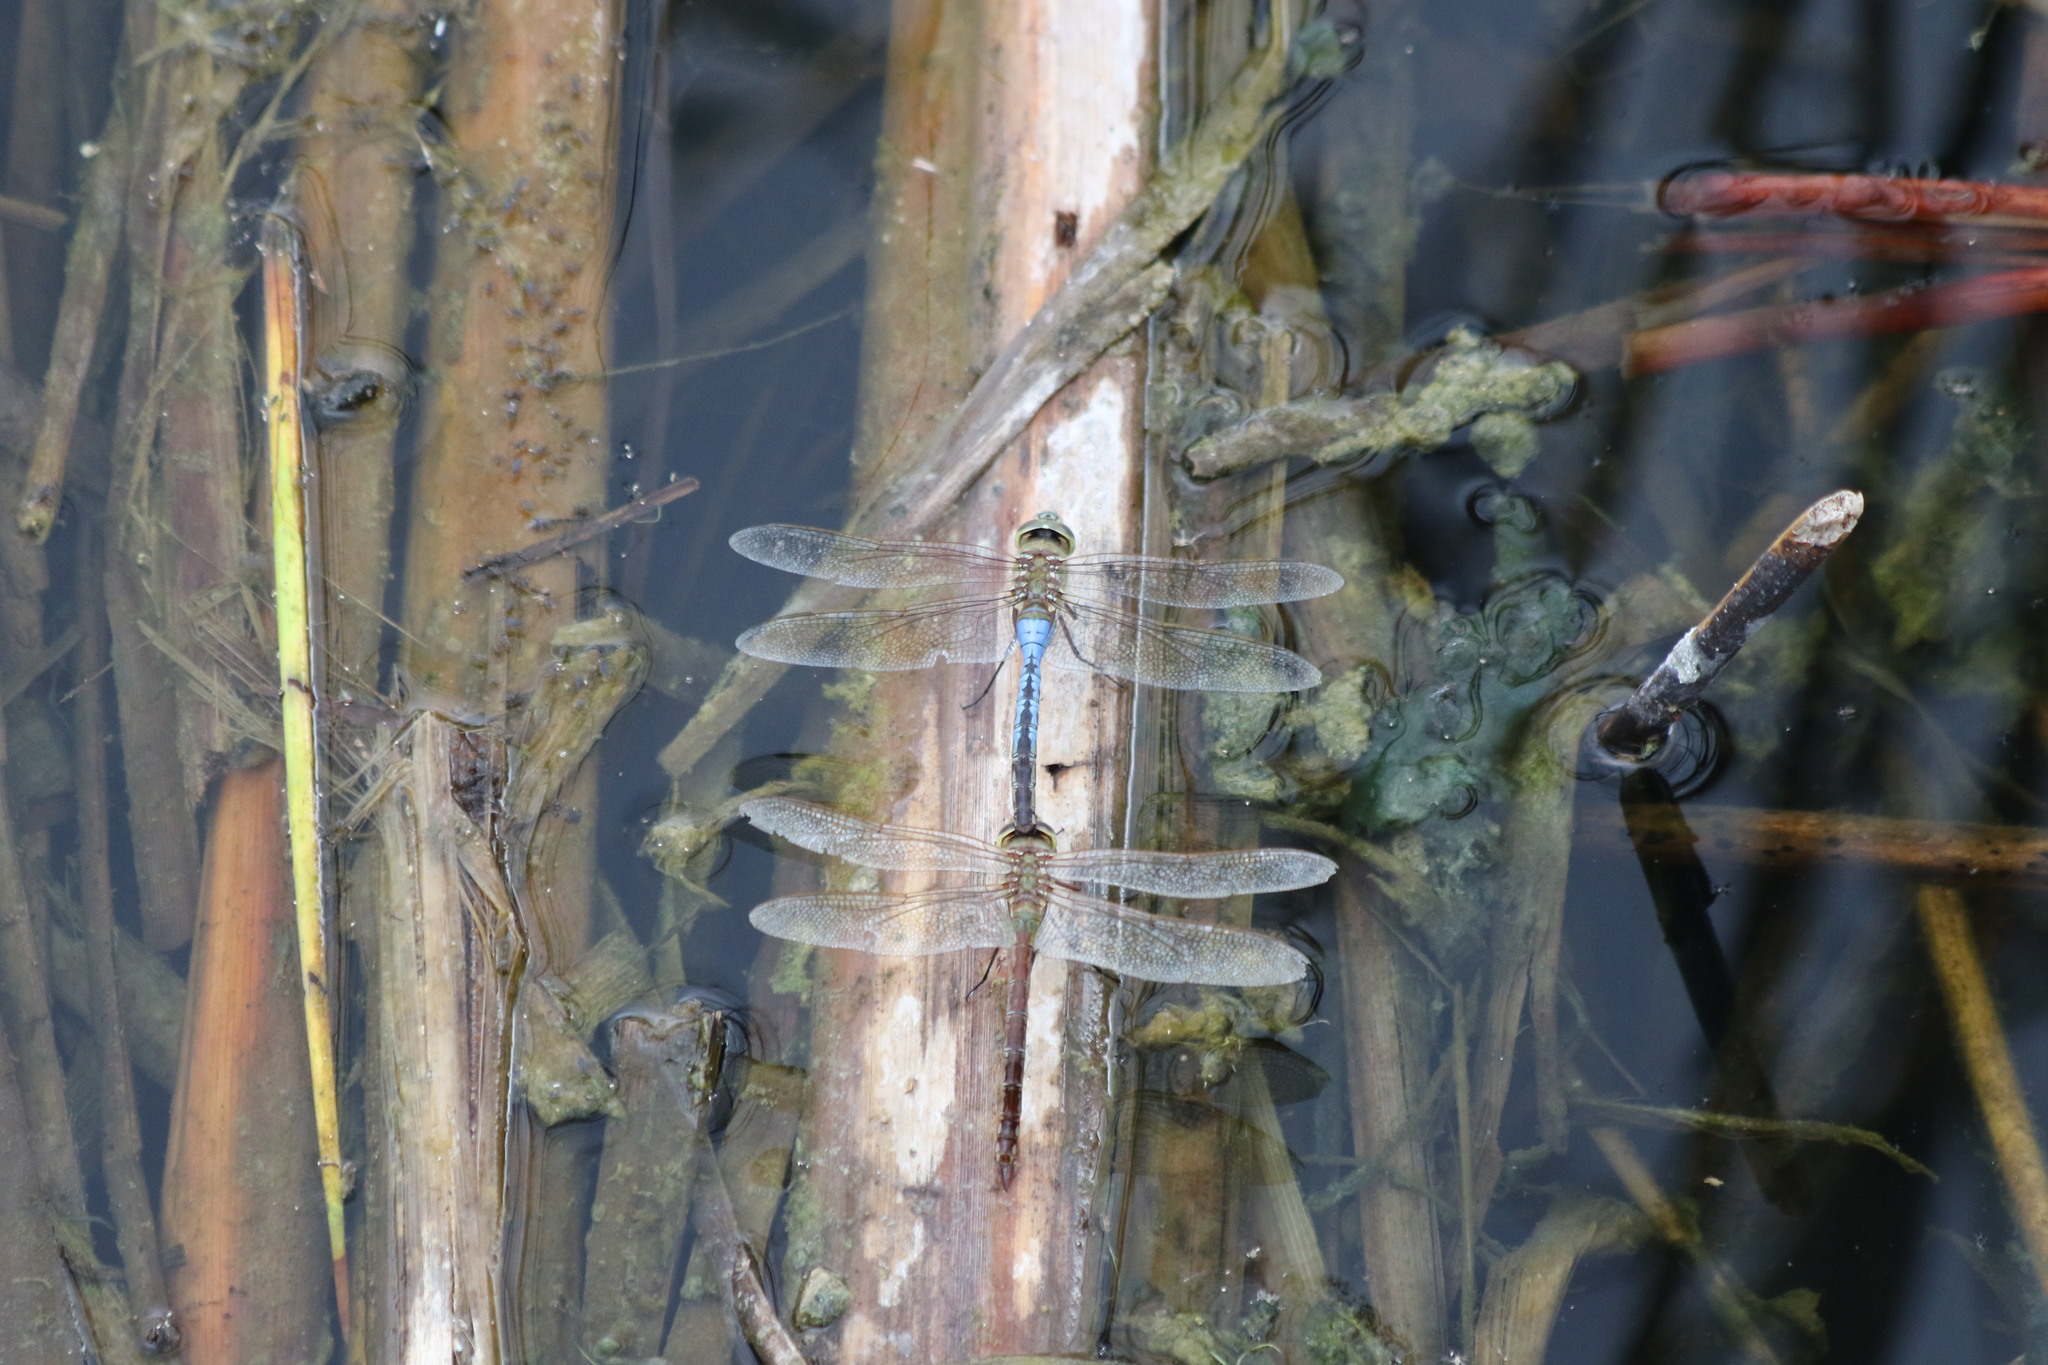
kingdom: Animalia
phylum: Arthropoda
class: Insecta
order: Odonata
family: Aeshnidae
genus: Anax
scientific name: Anax junius
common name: Common green darner
